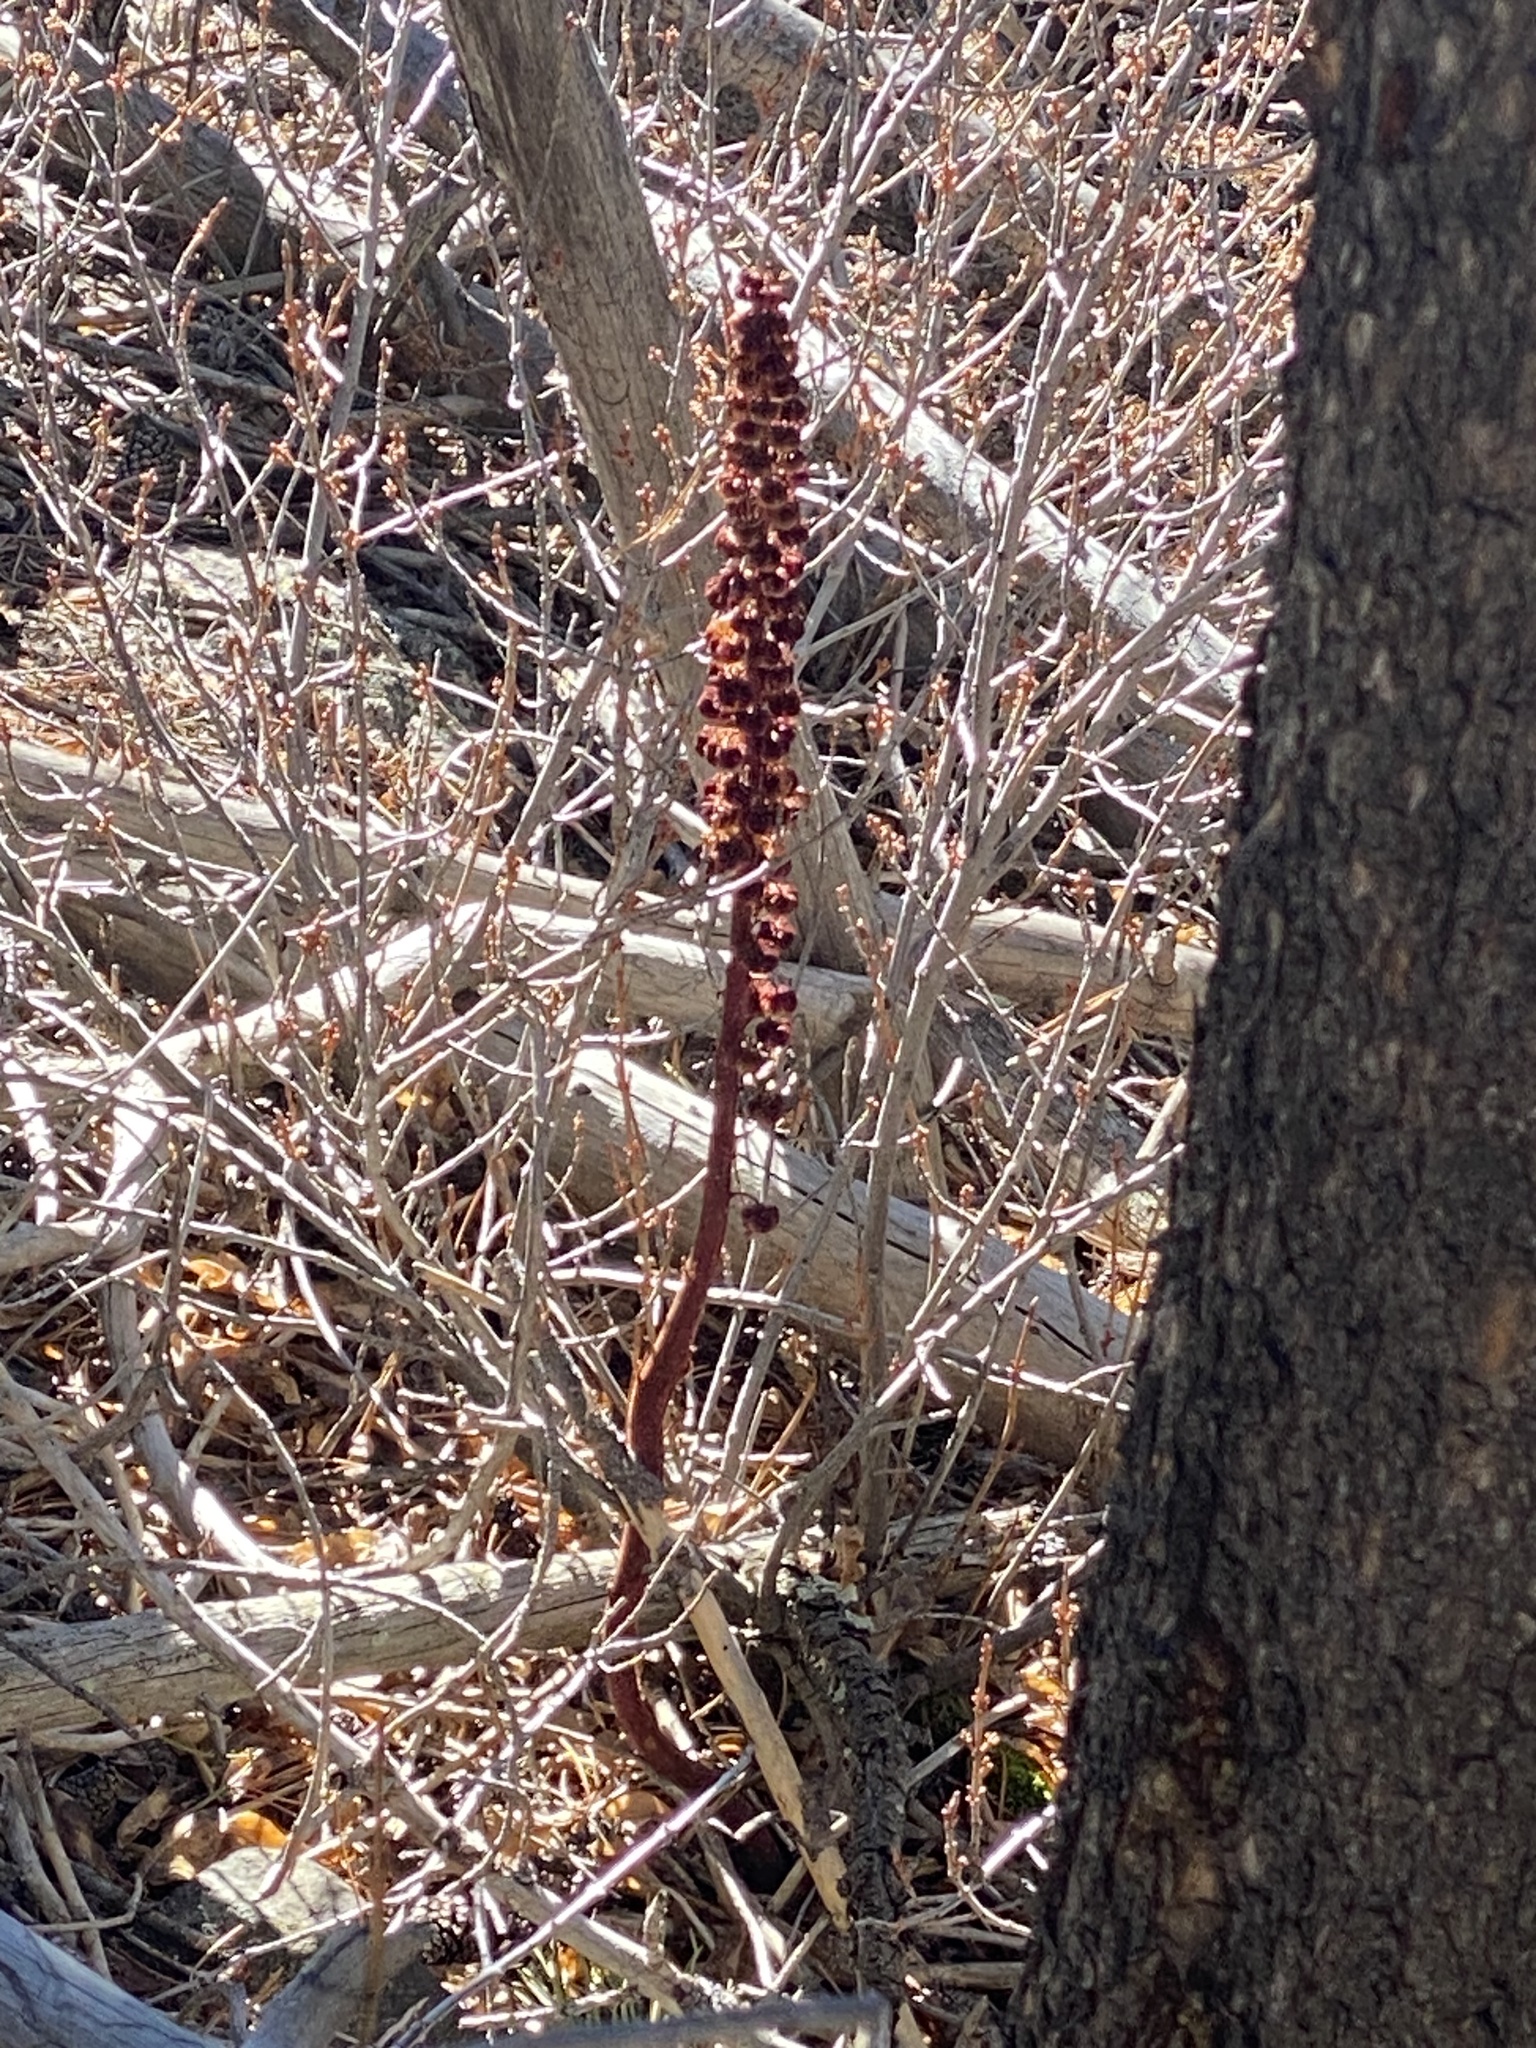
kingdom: Plantae
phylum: Tracheophyta
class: Magnoliopsida
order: Ericales
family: Ericaceae
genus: Pterospora
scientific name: Pterospora andromedea
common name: Giant bird's-nest
